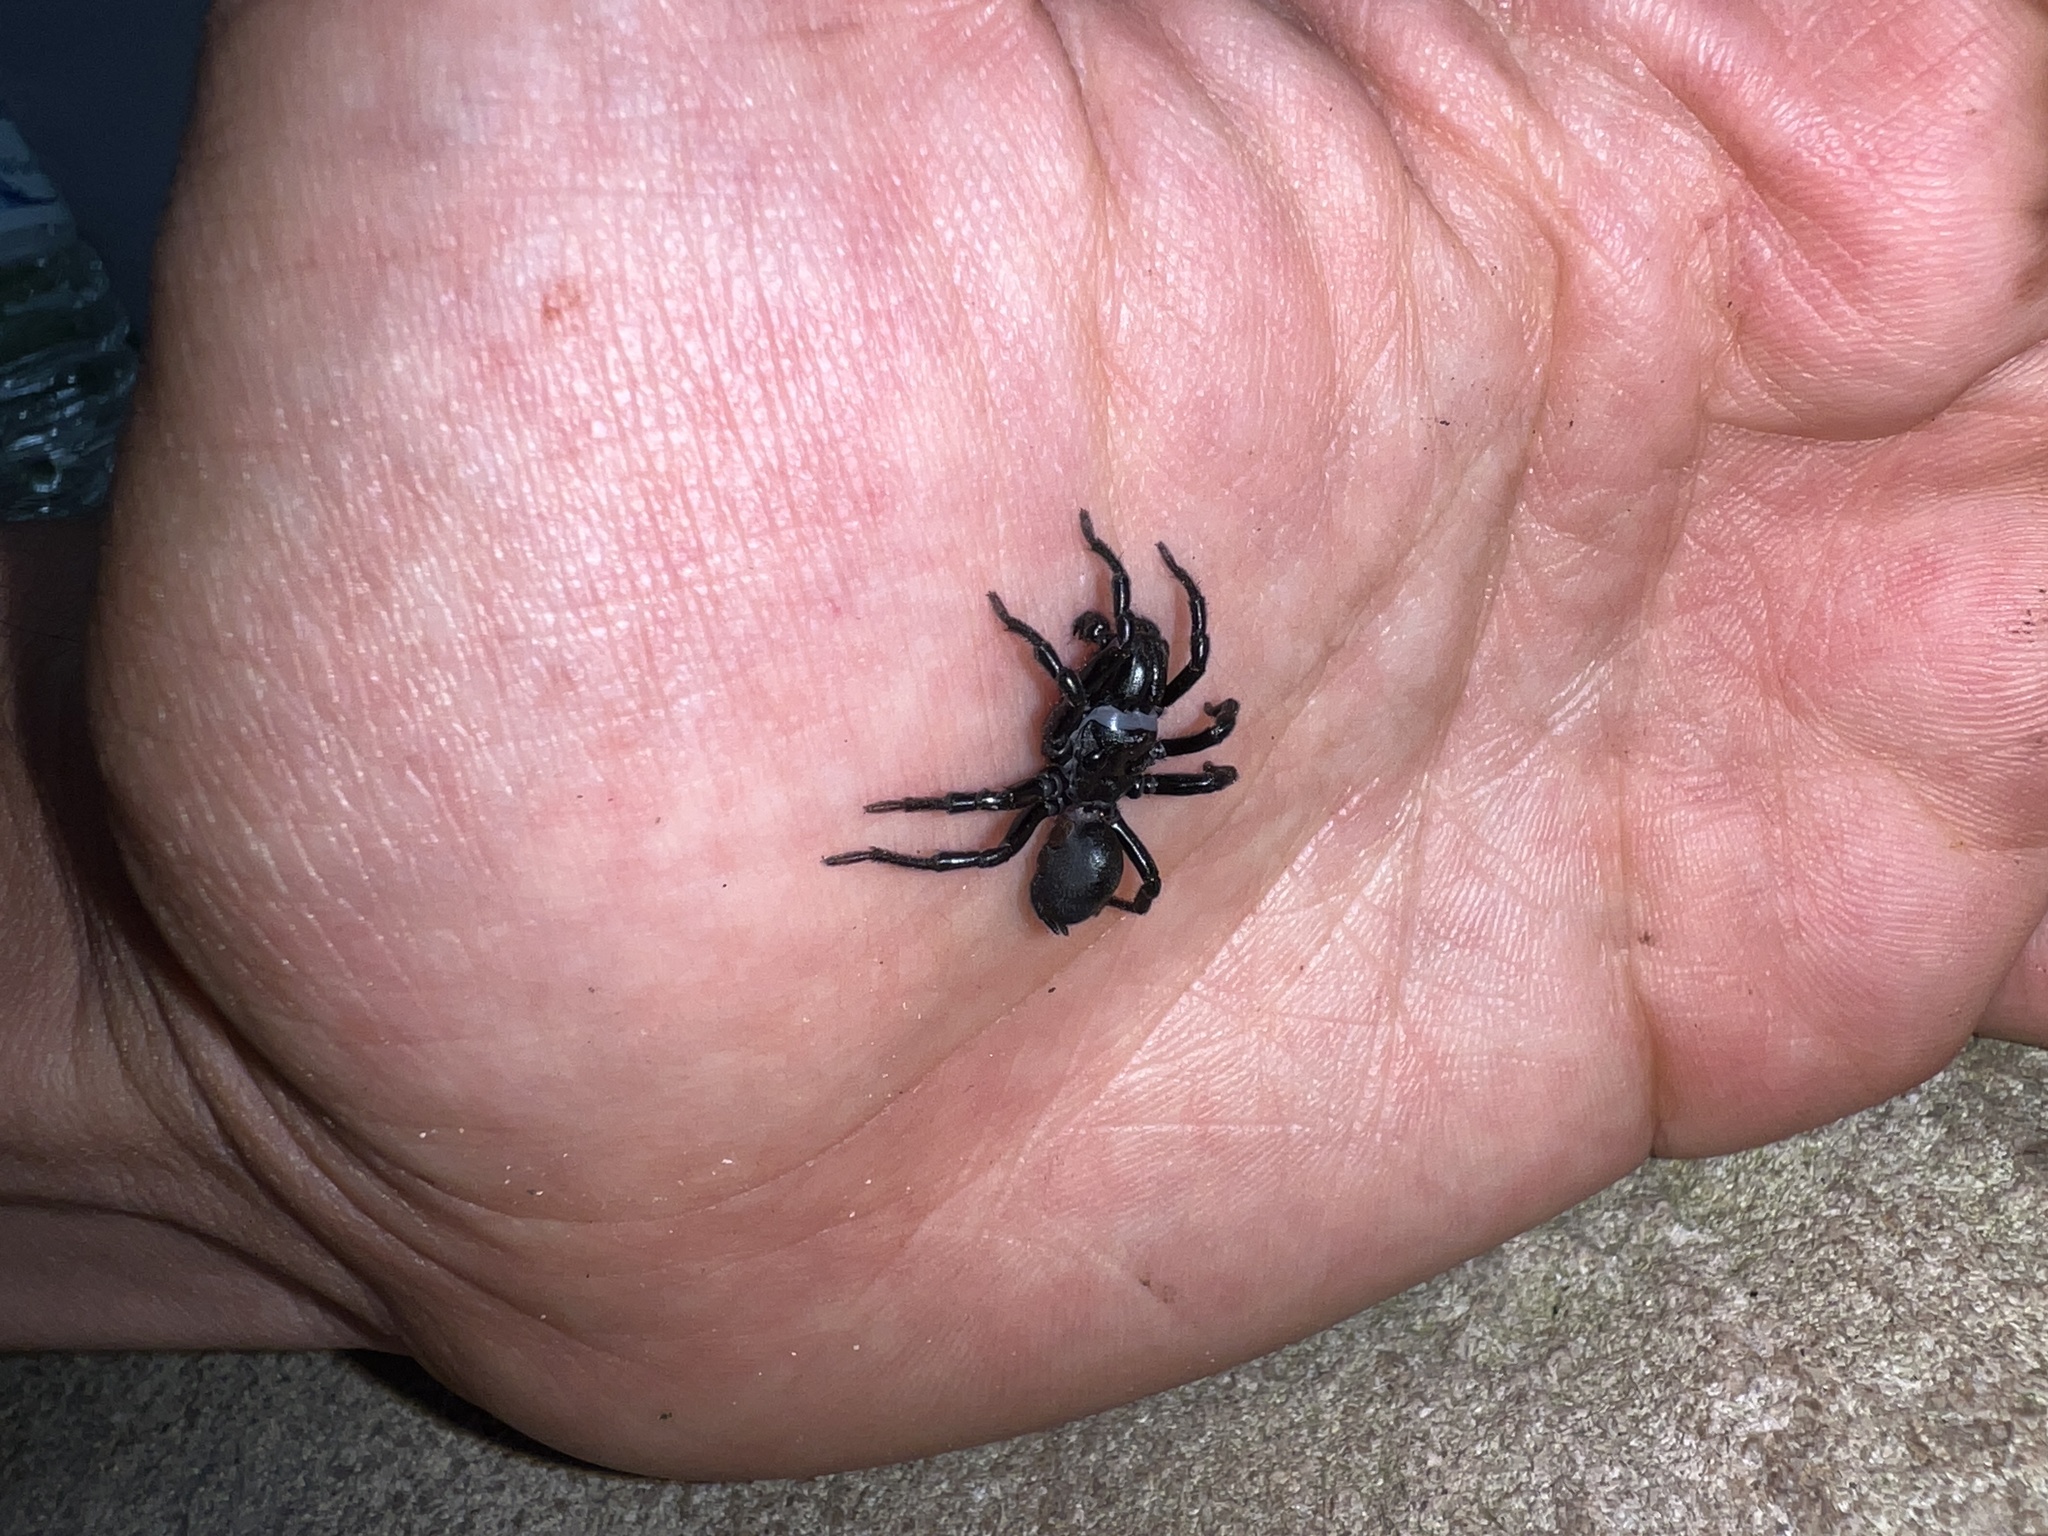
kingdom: Animalia
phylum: Arthropoda
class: Arachnida
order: Araneae
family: Atypidae
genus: Sphodros
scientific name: Sphodros niger
